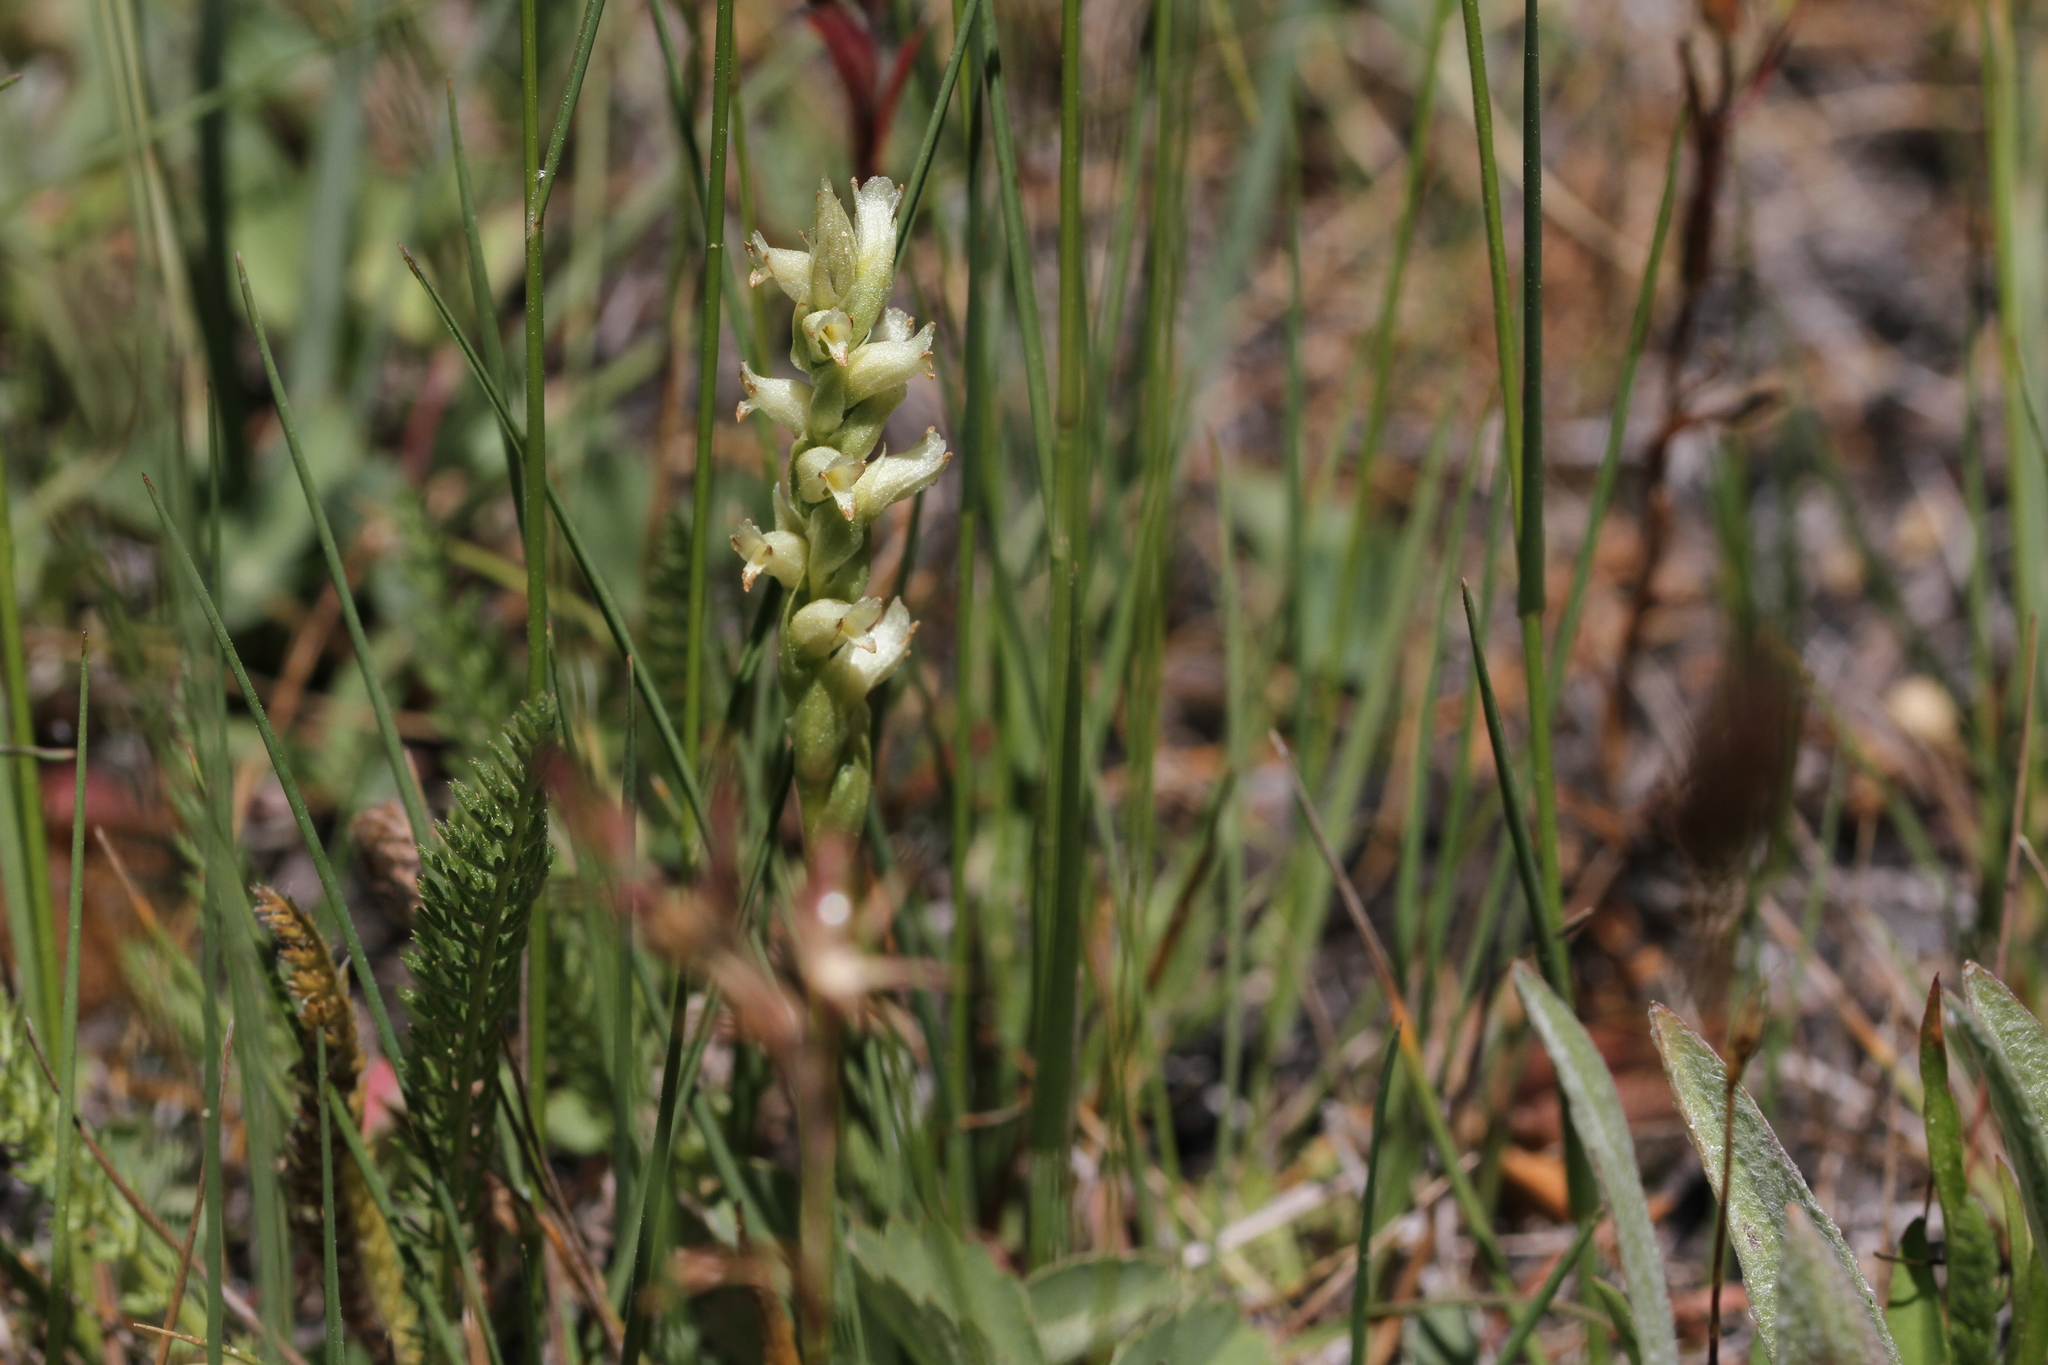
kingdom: Plantae
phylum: Tracheophyta
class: Liliopsida
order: Asparagales
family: Orchidaceae
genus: Spiranthes
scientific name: Spiranthes romanzoffiana
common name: Irish lady's-tresses
